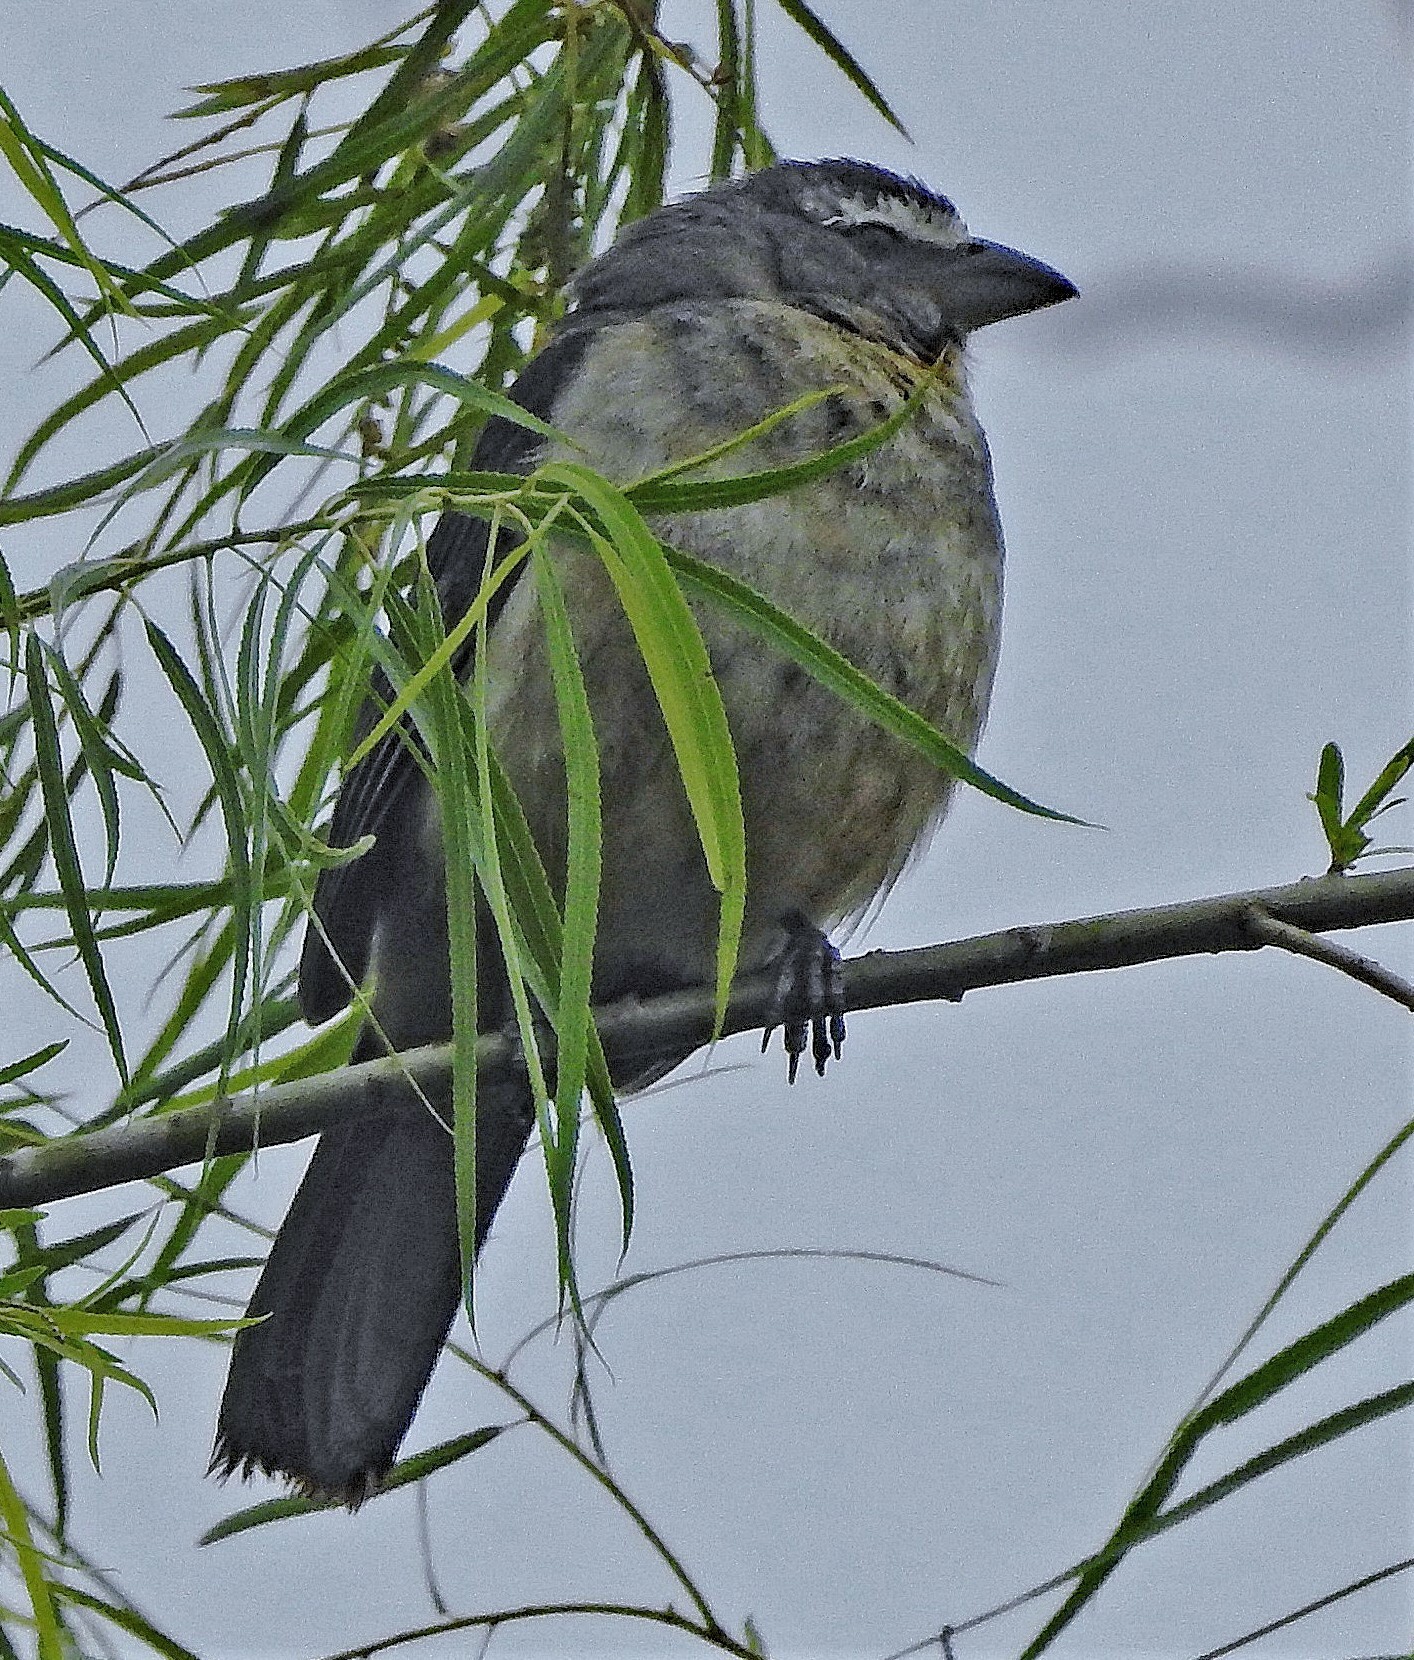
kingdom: Animalia
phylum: Chordata
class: Aves
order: Passeriformes
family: Thraupidae
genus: Saltator
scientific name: Saltator coerulescens
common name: Grayish saltator
